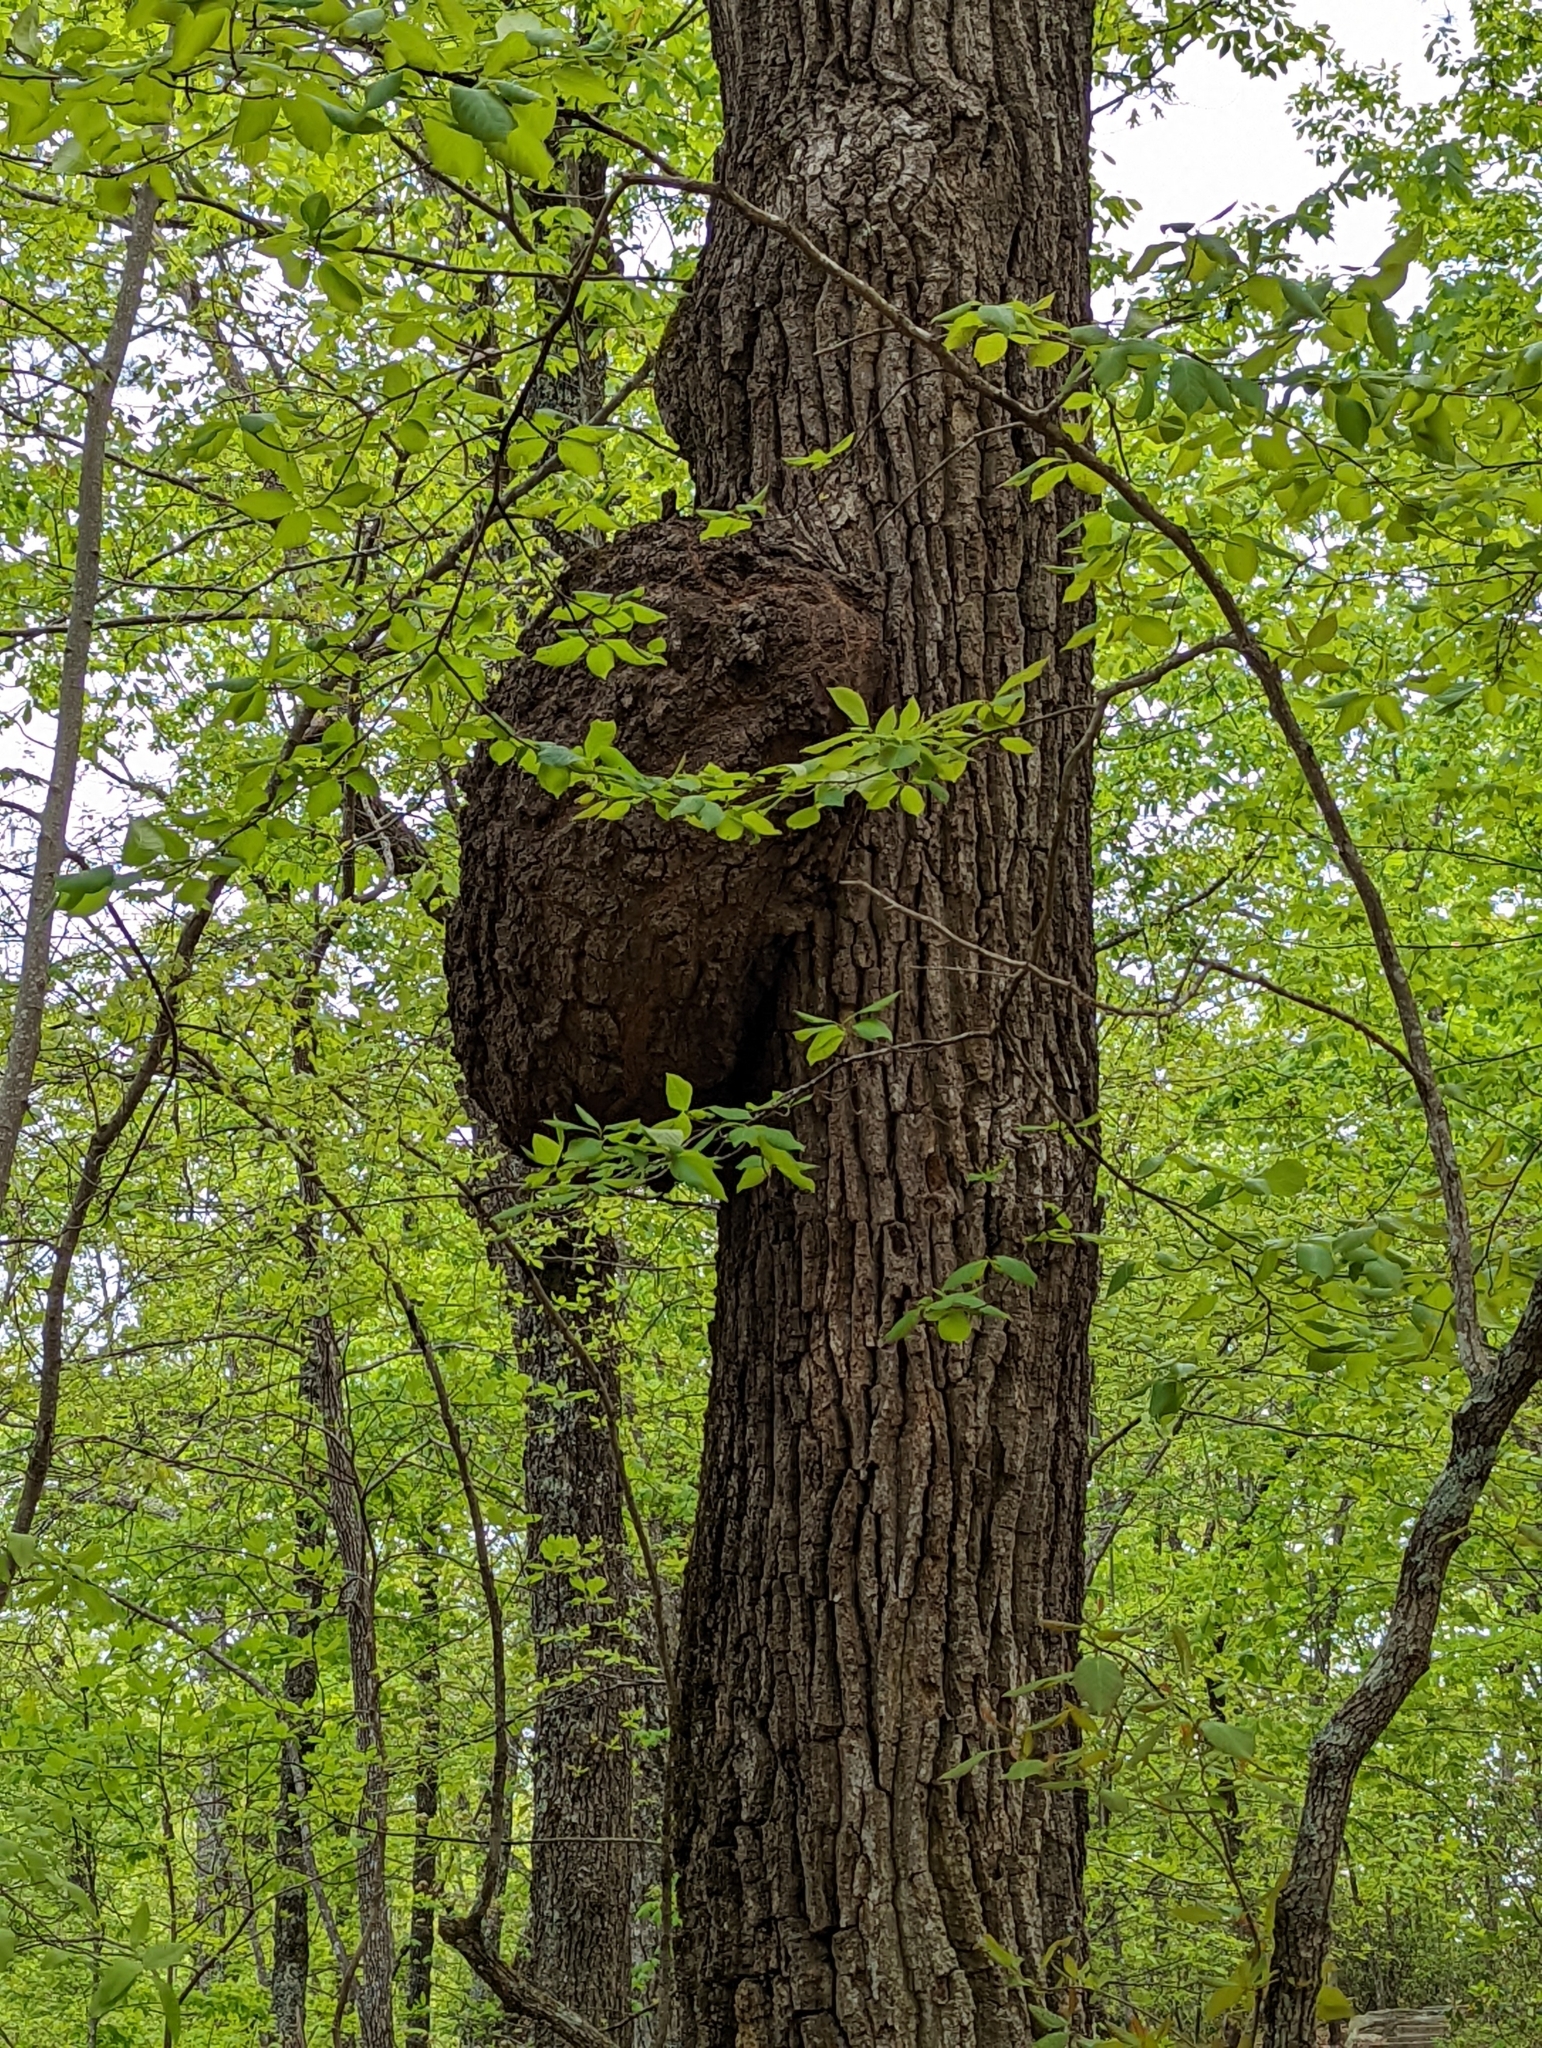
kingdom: Bacteria
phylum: Proteobacteria
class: Alphaproteobacteria
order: Rhizobiales
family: Rhizobiaceae
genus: Rhizobium
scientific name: Rhizobium Agrobacterium radiobacter
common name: Bacterial crown gall
